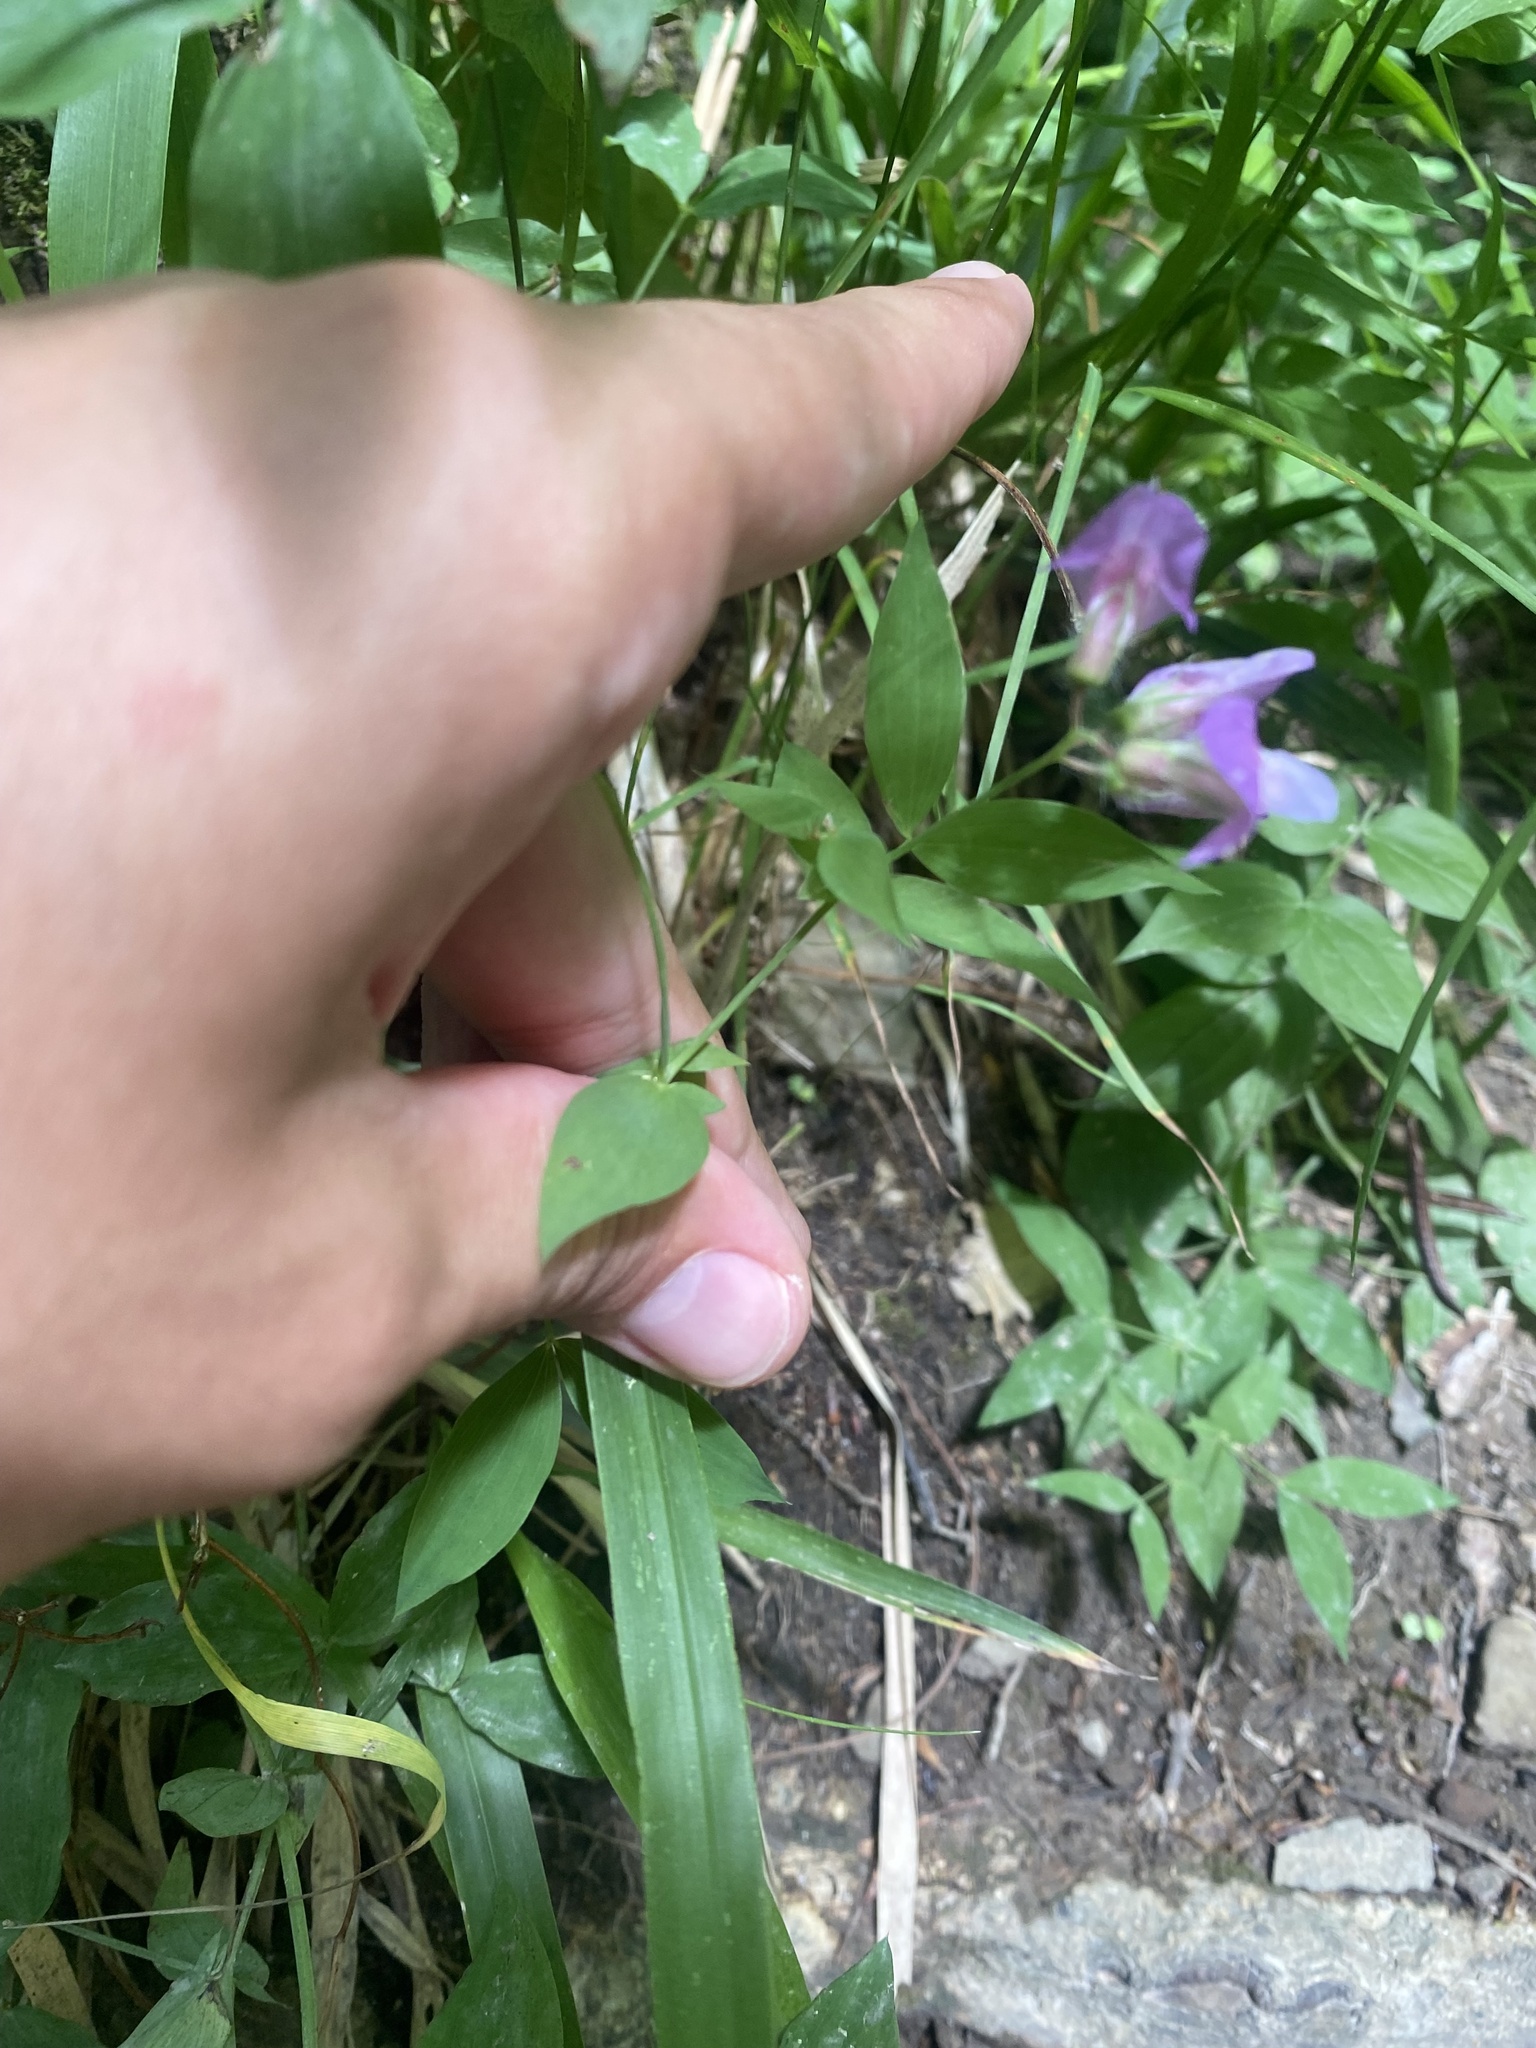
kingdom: Plantae
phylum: Tracheophyta
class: Magnoliopsida
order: Fabales
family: Fabaceae
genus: Lathyrus
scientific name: Lathyrus laxiflorus
